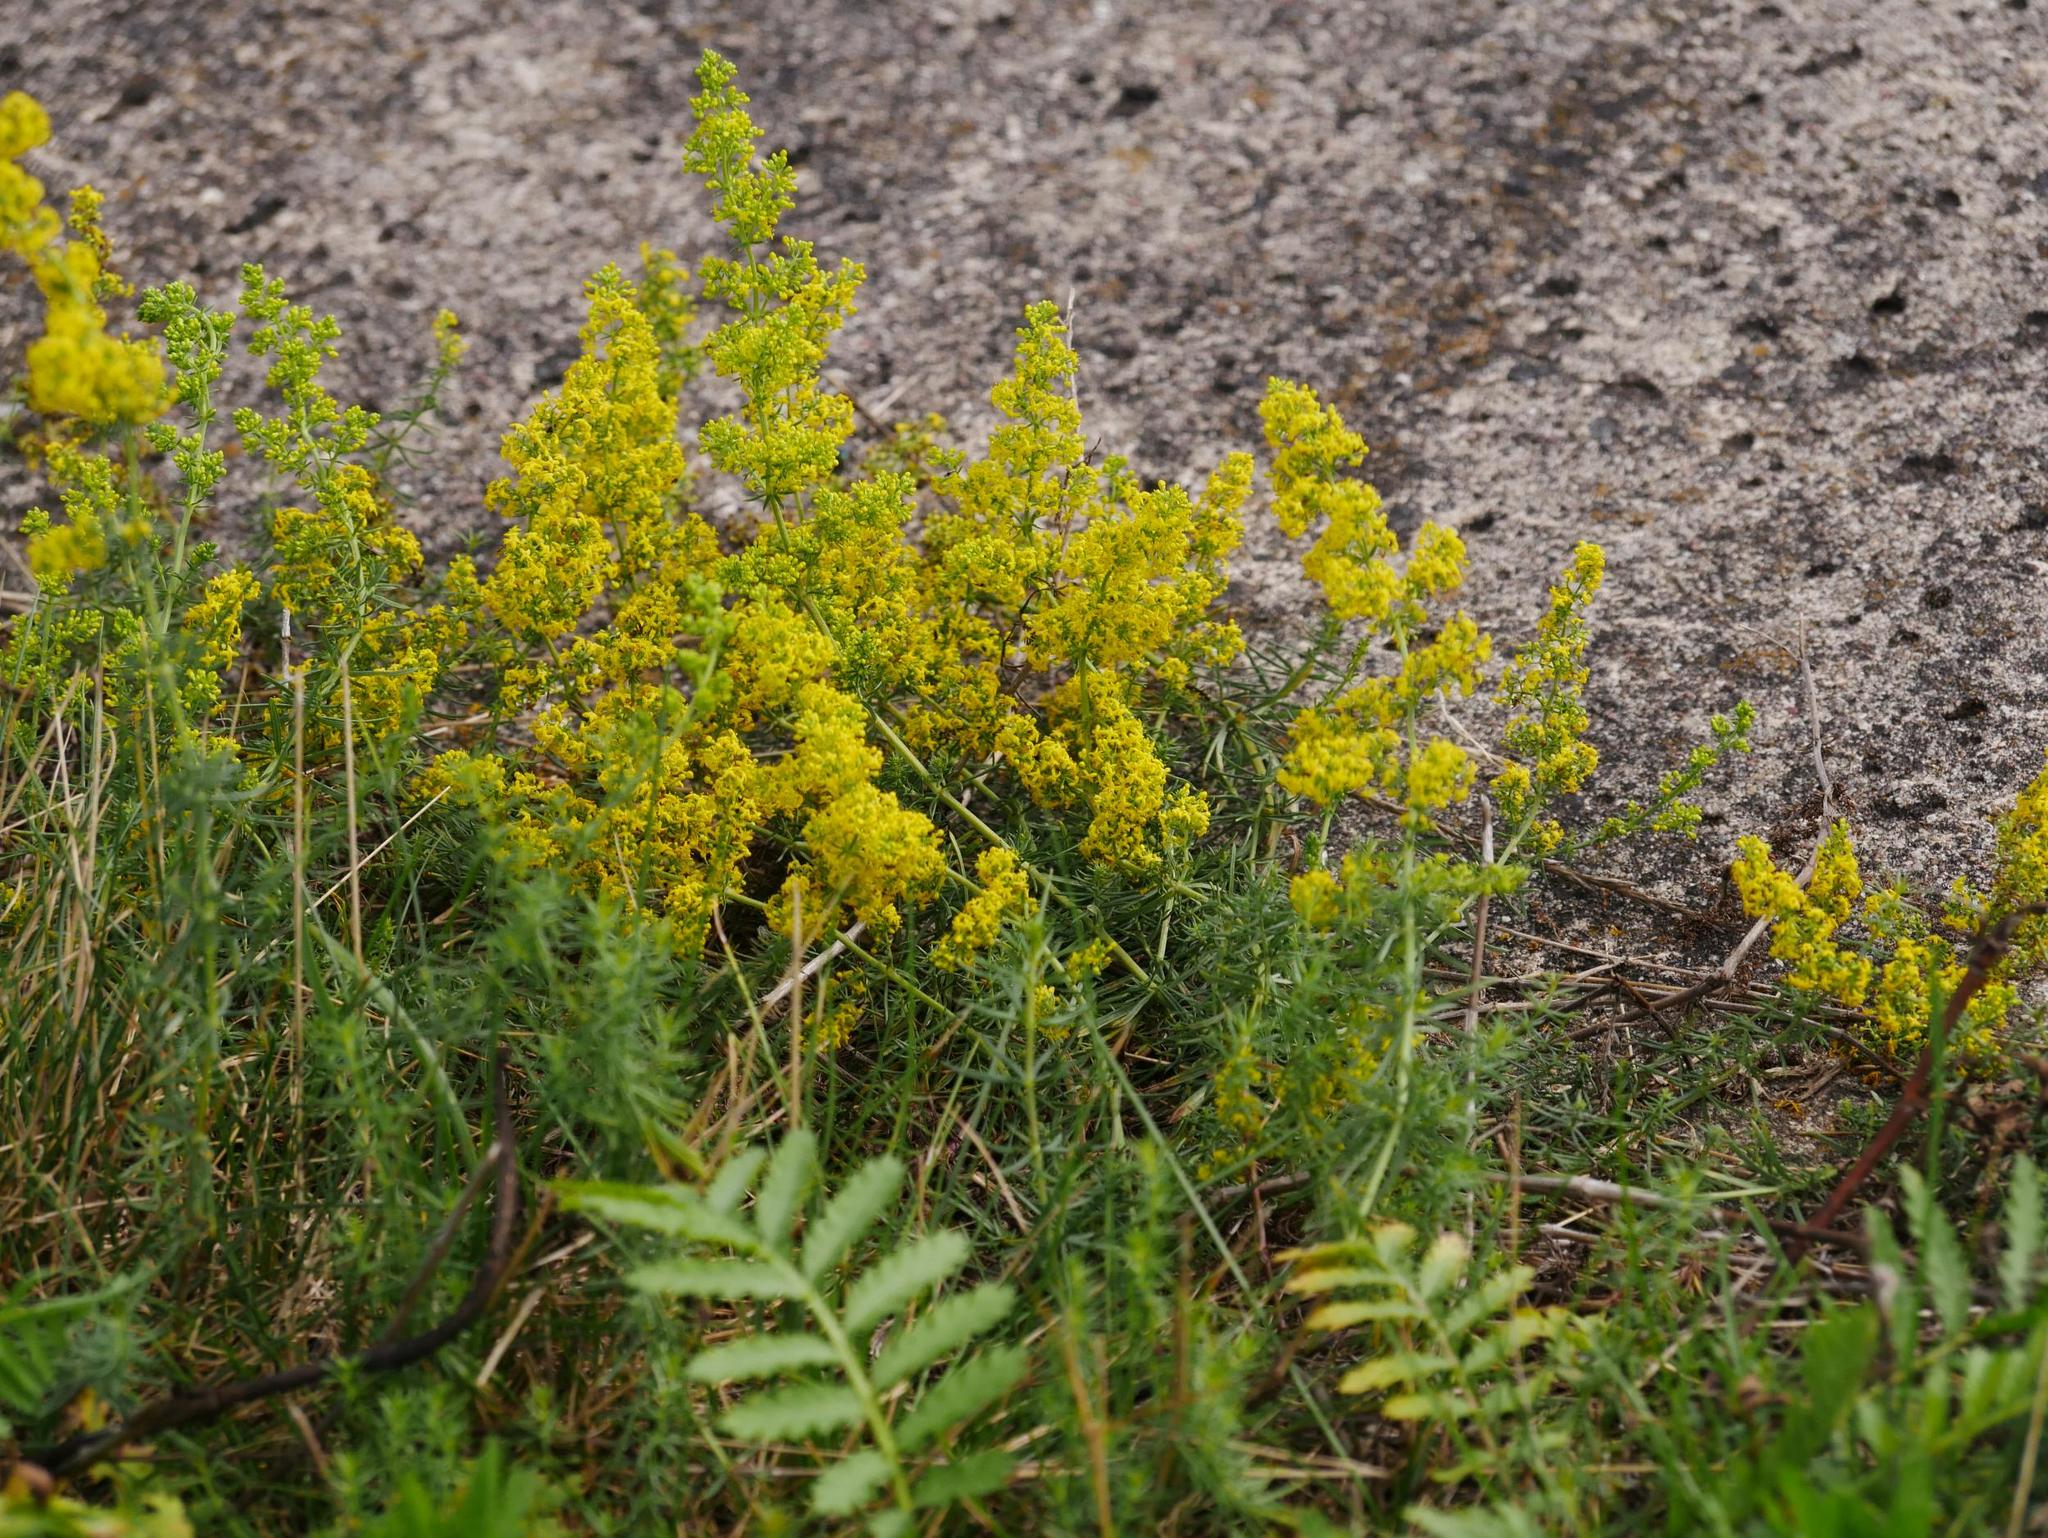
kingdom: Plantae
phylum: Tracheophyta
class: Magnoliopsida
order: Gentianales
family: Rubiaceae
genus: Galium
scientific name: Galium verum
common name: Lady's bedstraw
